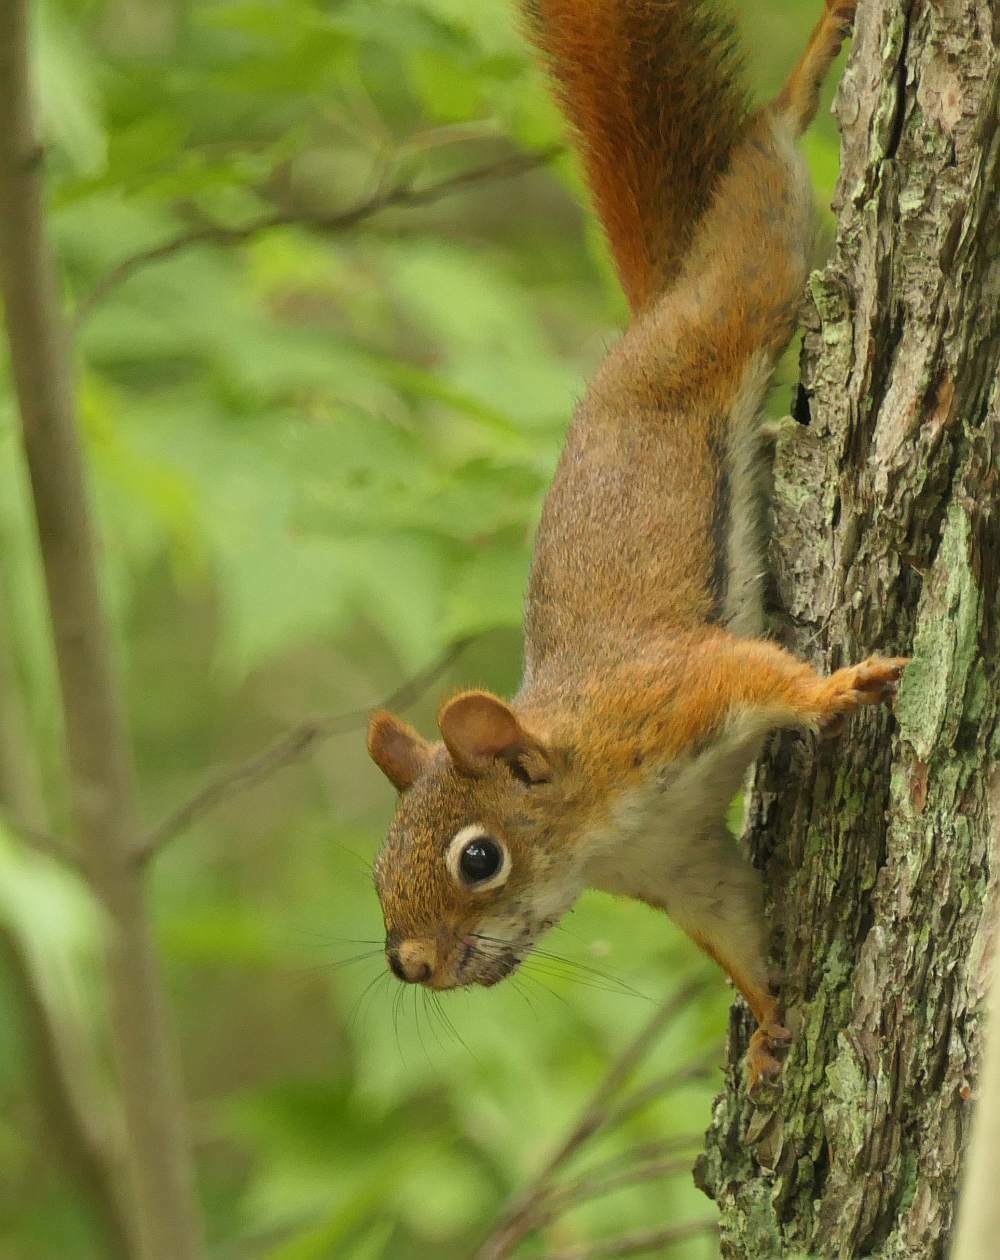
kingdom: Animalia
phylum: Chordata
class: Mammalia
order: Rodentia
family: Sciuridae
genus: Tamiasciurus
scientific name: Tamiasciurus hudsonicus
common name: Red squirrel
